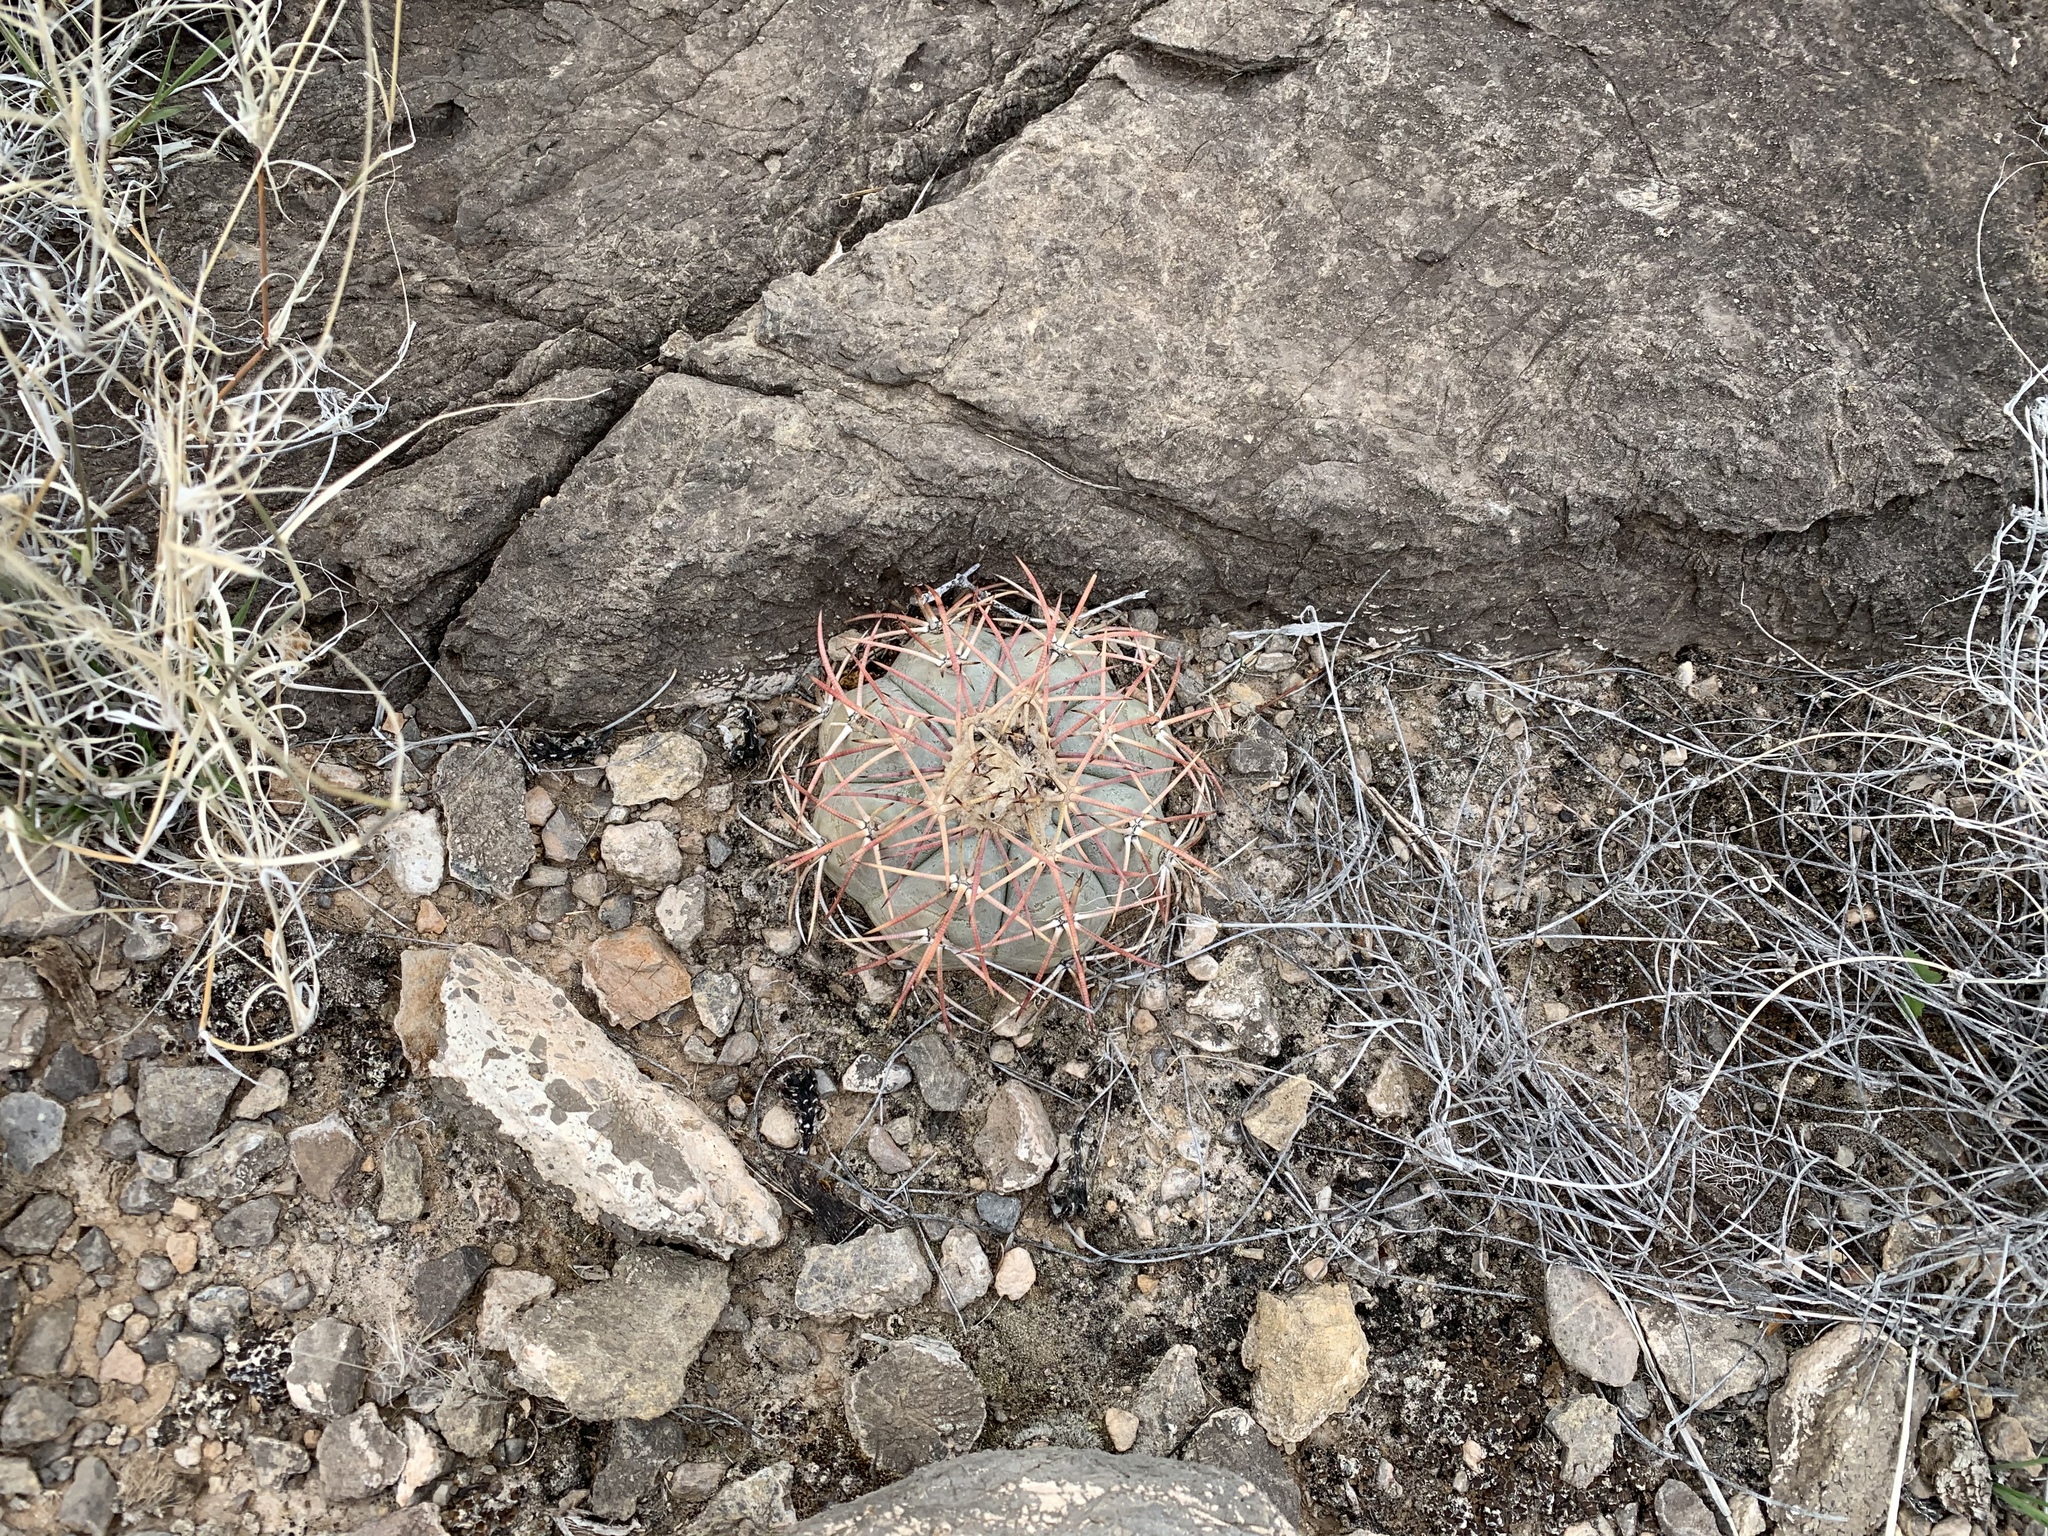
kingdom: Plantae
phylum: Tracheophyta
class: Magnoliopsida
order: Caryophyllales
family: Cactaceae
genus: Echinocactus
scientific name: Echinocactus horizonthalonius
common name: Devilshead
